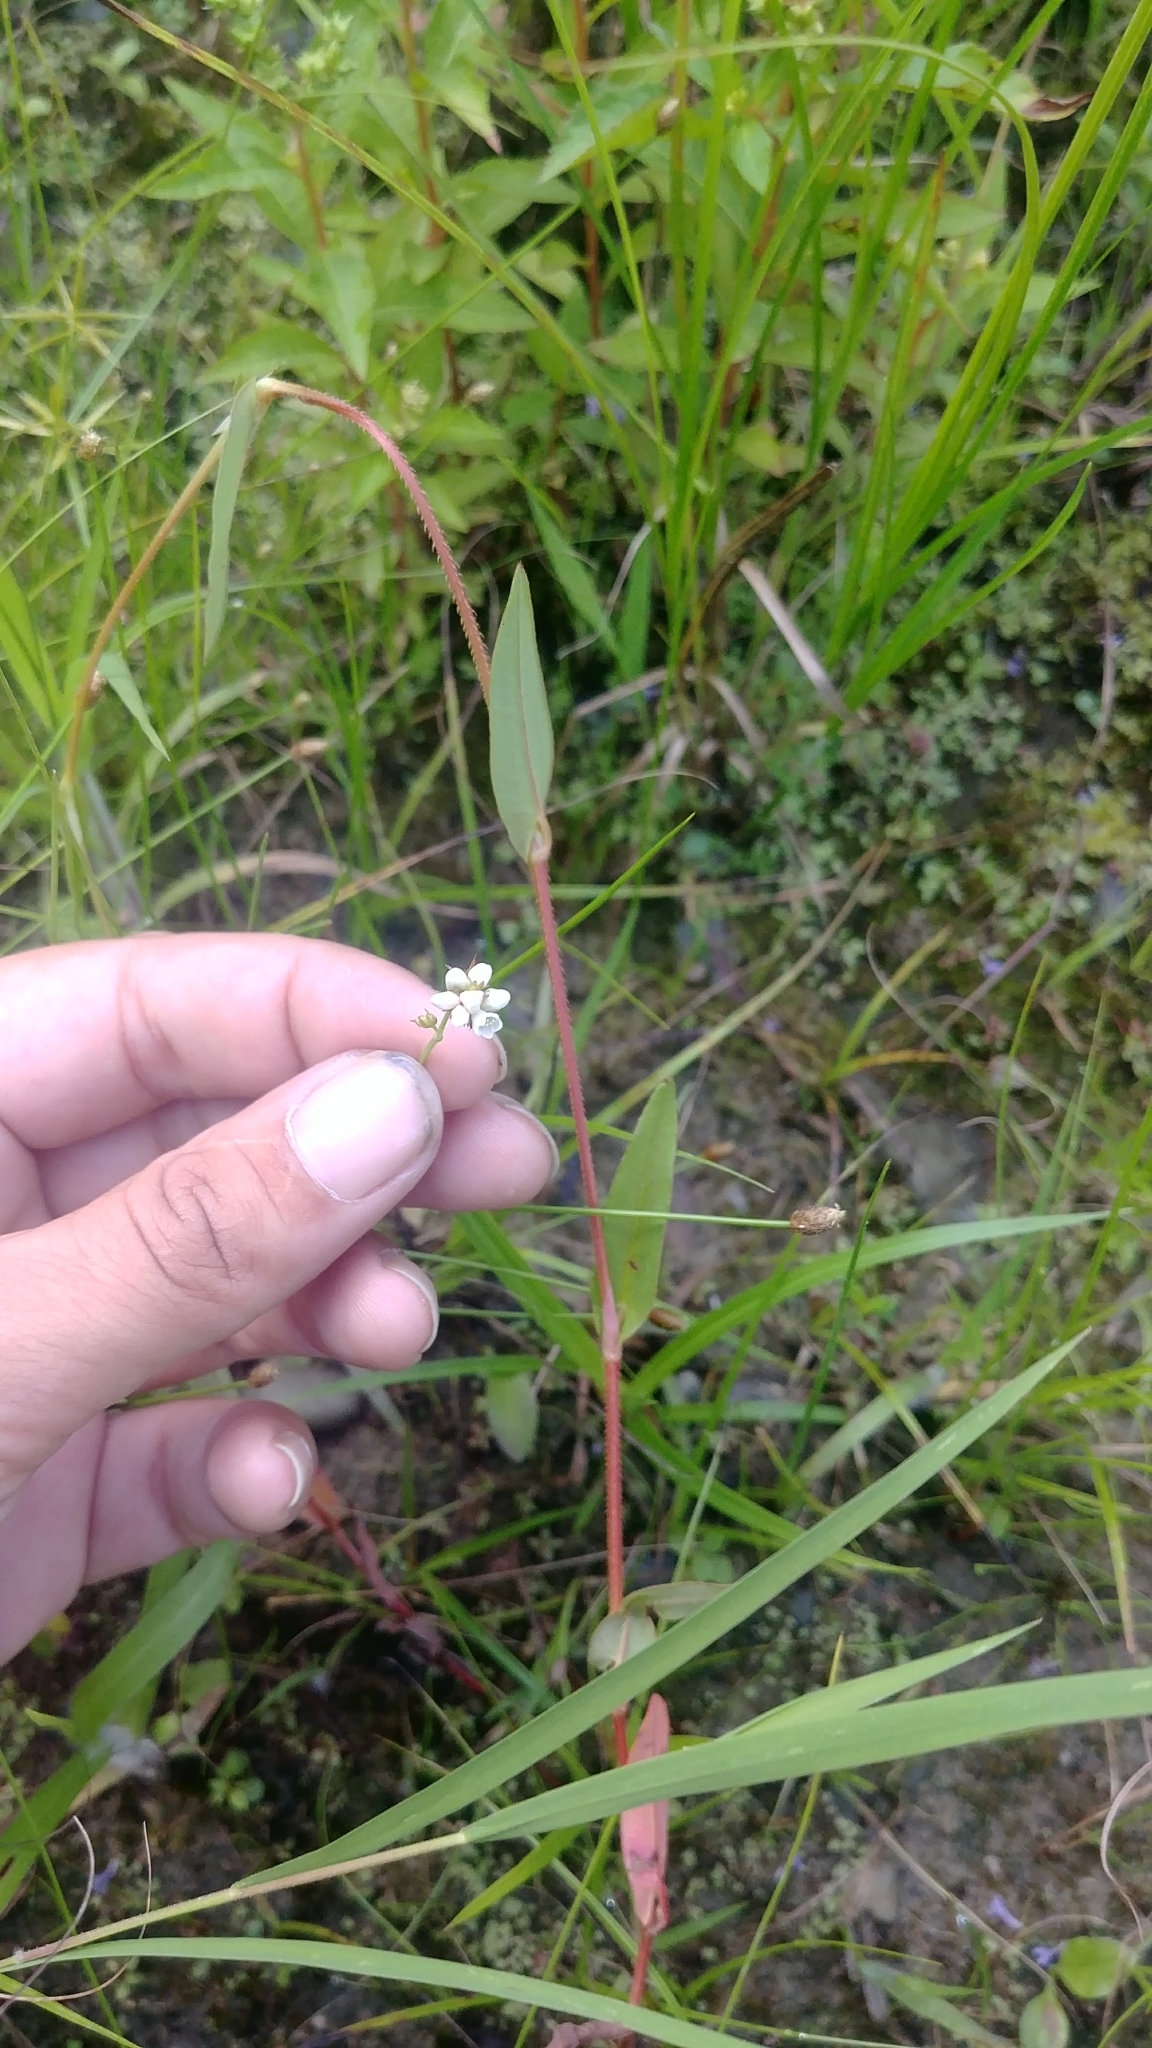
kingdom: Plantae
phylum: Tracheophyta
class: Magnoliopsida
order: Caryophyllales
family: Polygonaceae
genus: Persicaria
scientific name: Persicaria sagittata
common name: American tearthumb
